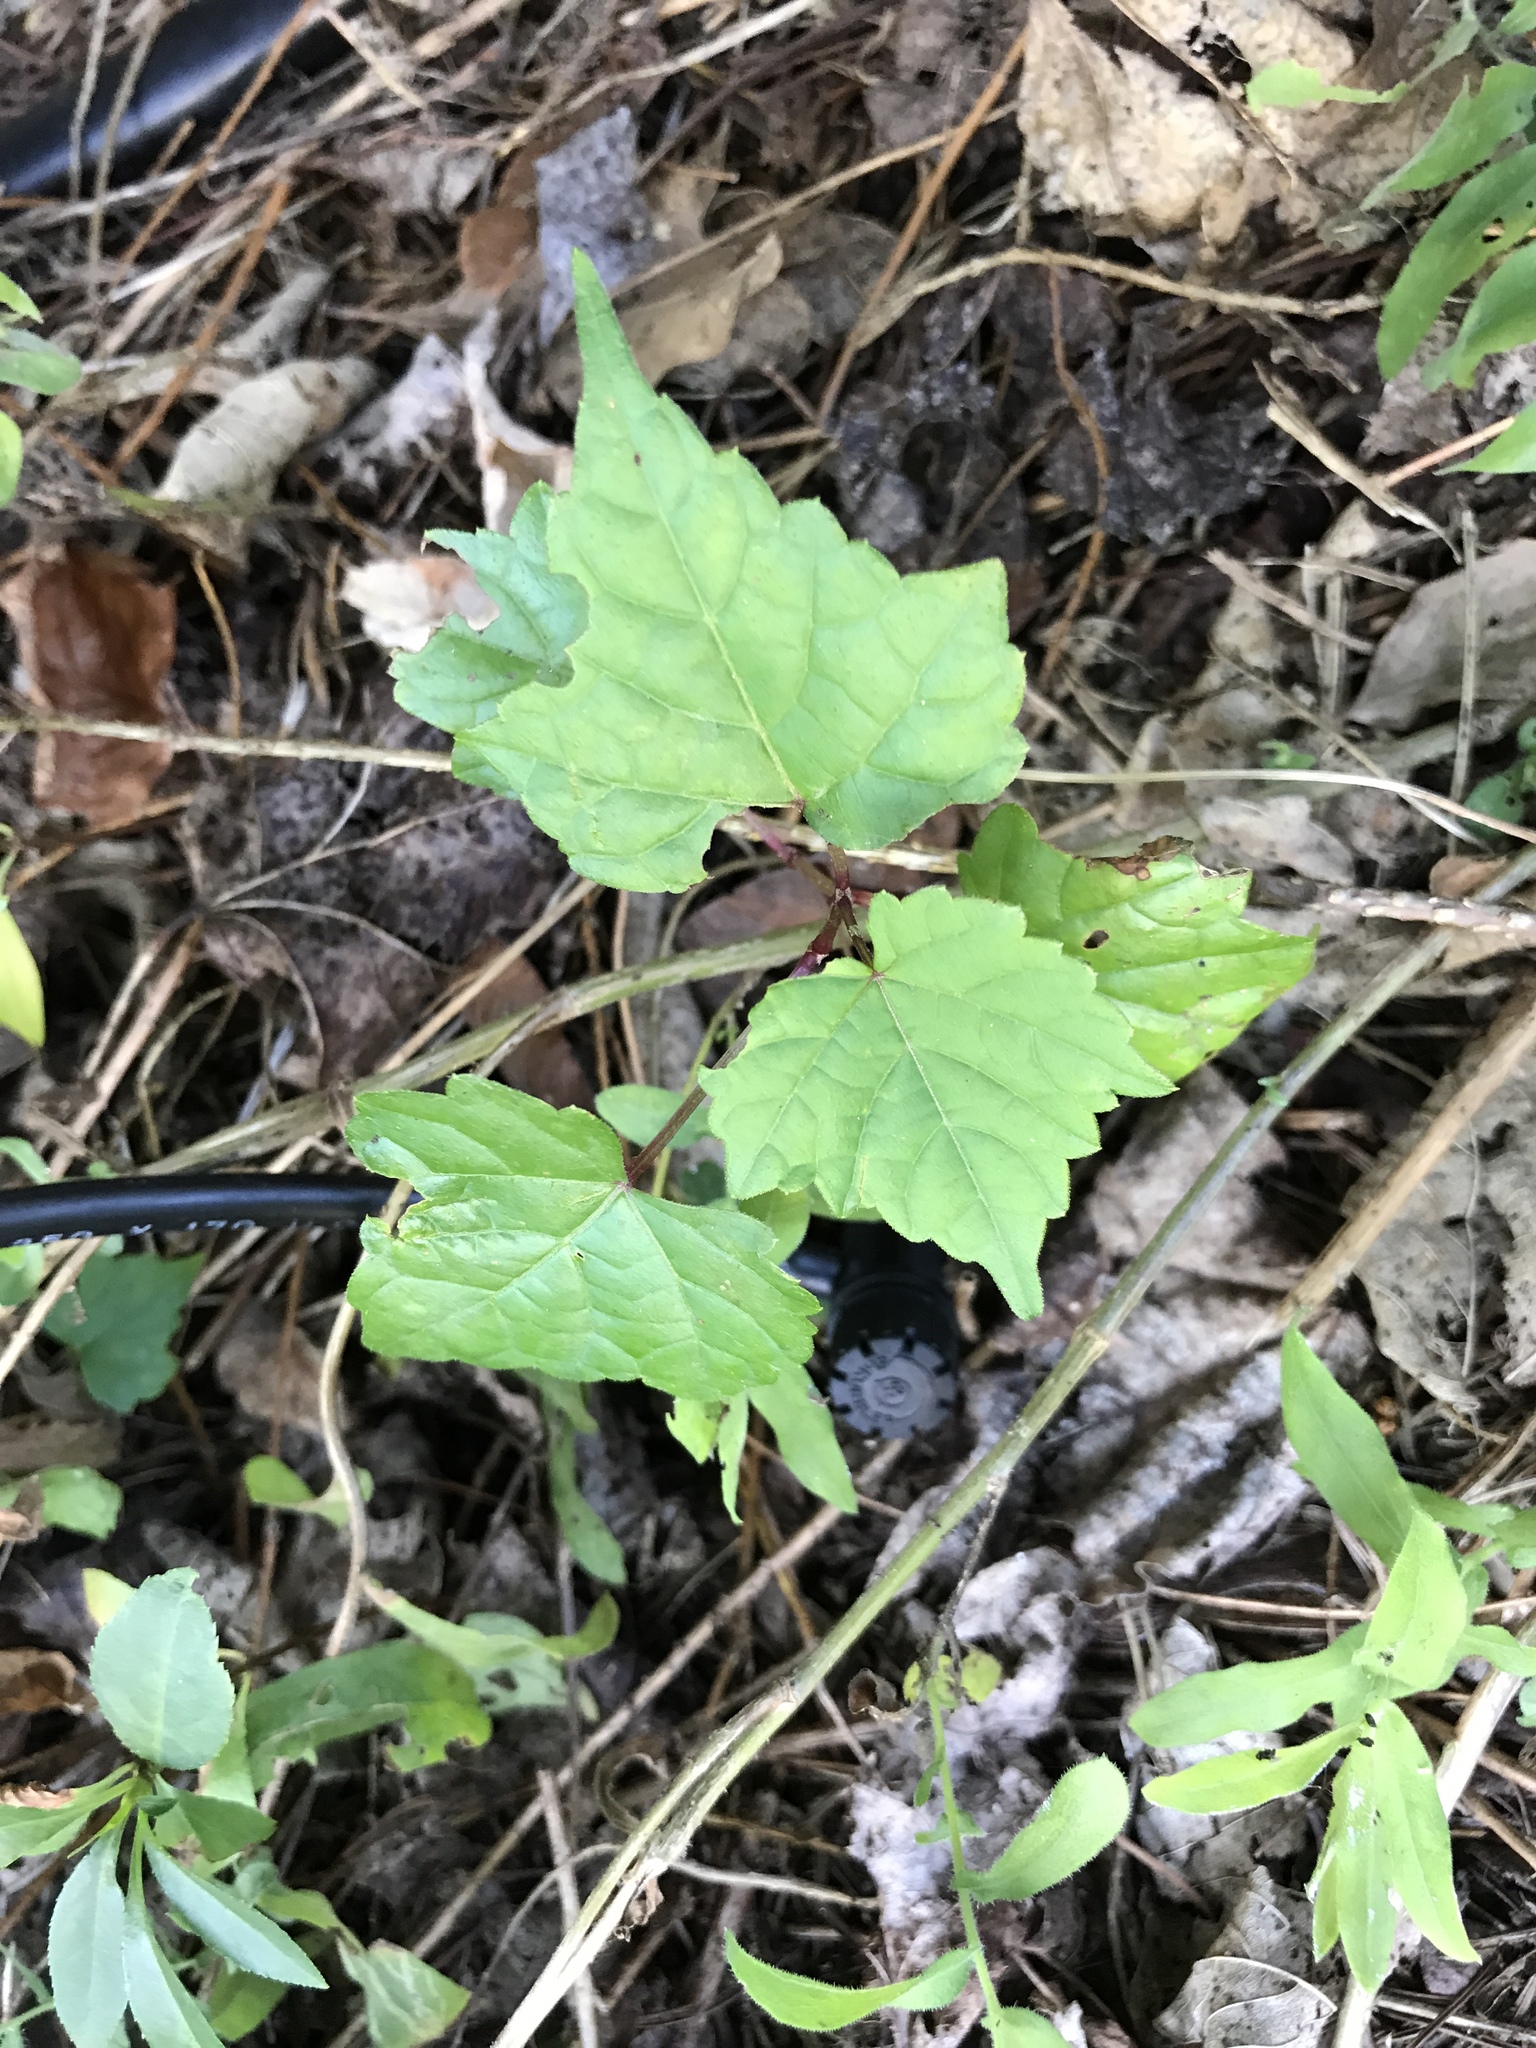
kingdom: Plantae
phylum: Tracheophyta
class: Magnoliopsida
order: Vitales
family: Vitaceae
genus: Ampelopsis
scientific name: Ampelopsis glandulosa
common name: Amur peppervine
